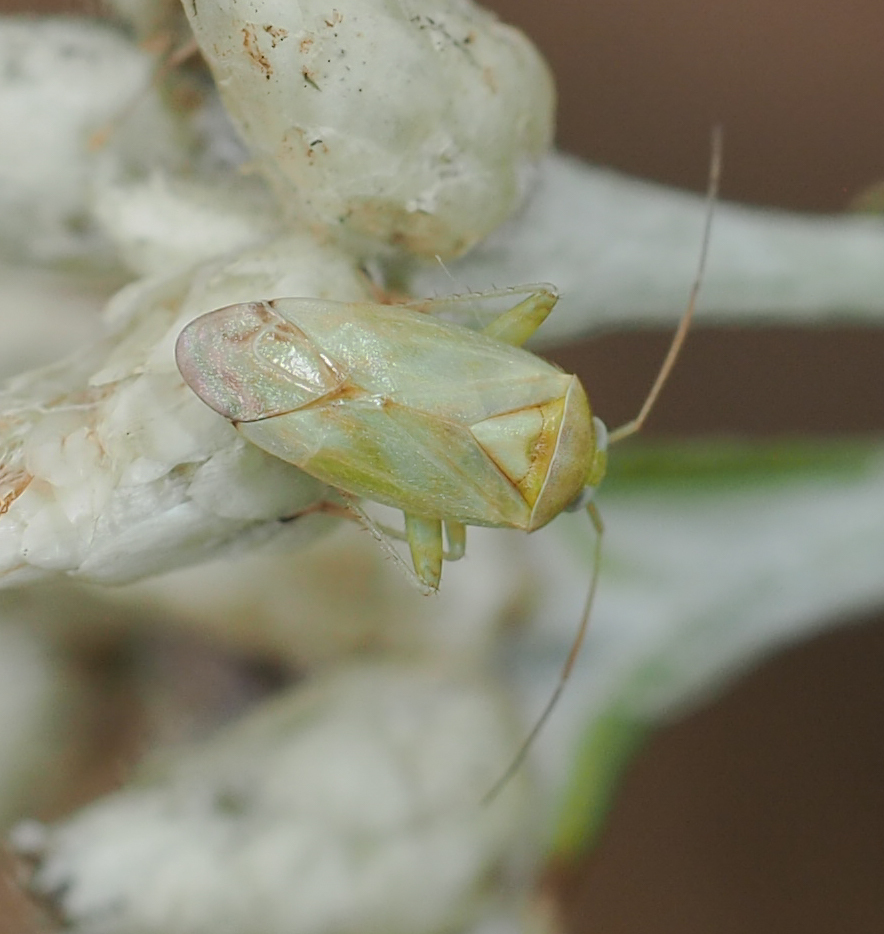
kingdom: Animalia
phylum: Arthropoda
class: Insecta
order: Hemiptera
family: Miridae
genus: Taylorilygus
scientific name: Taylorilygus apicalis
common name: Plant bug
